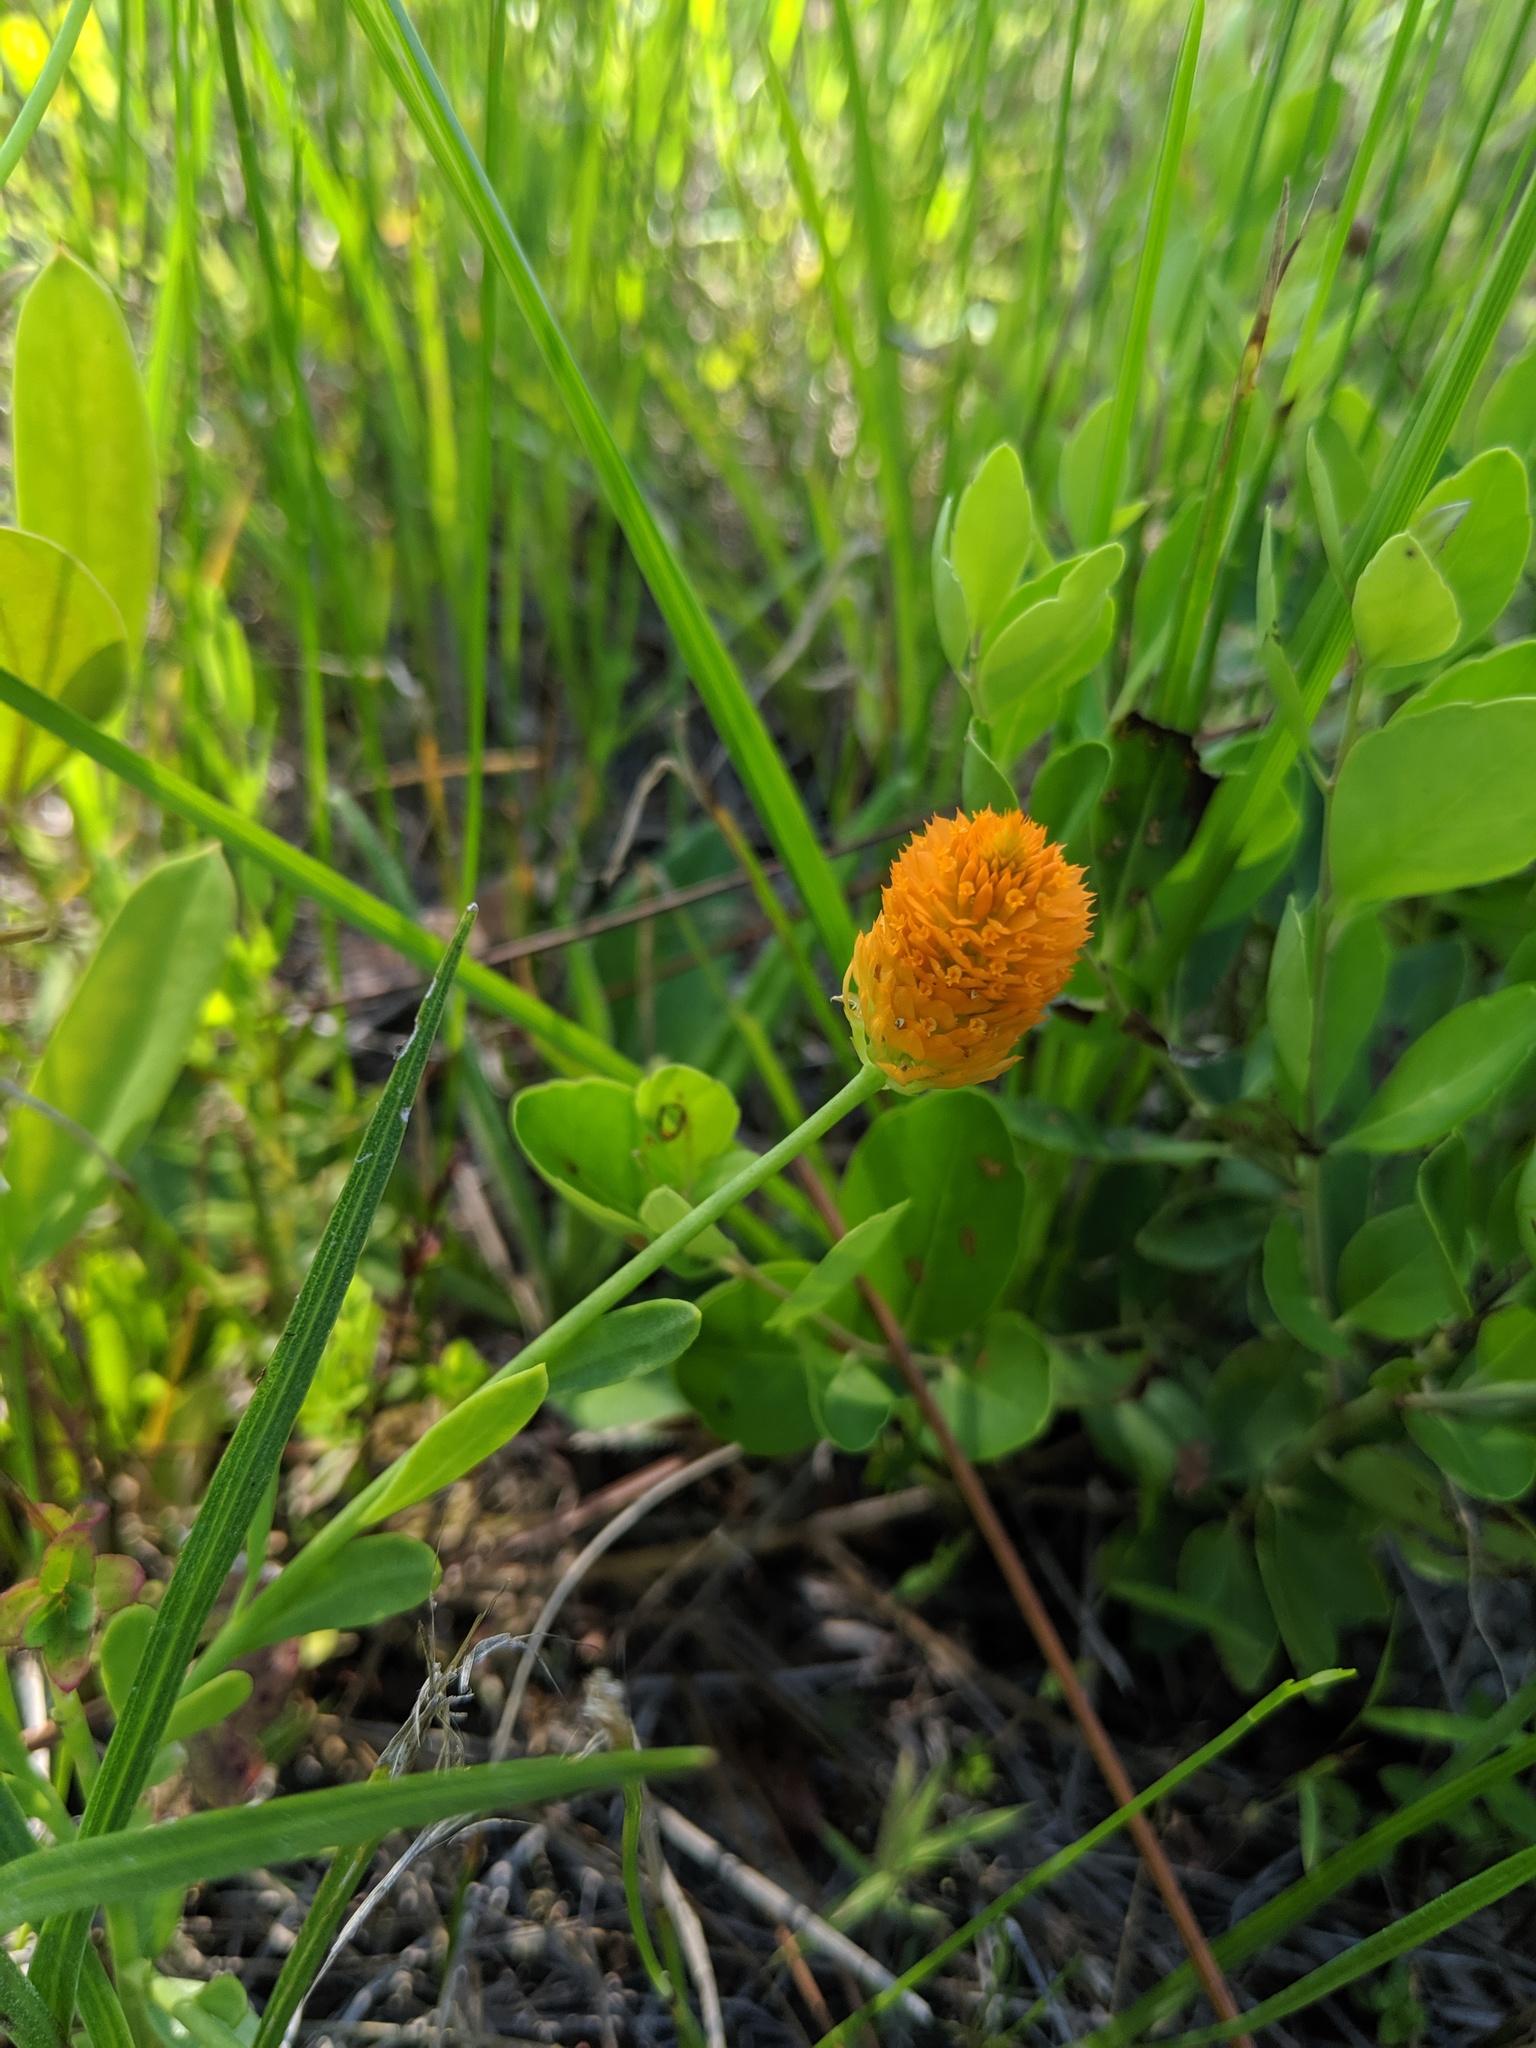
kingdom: Plantae
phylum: Tracheophyta
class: Magnoliopsida
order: Fabales
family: Polygalaceae
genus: Polygala
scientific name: Polygala lutea
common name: Orange milkwort
